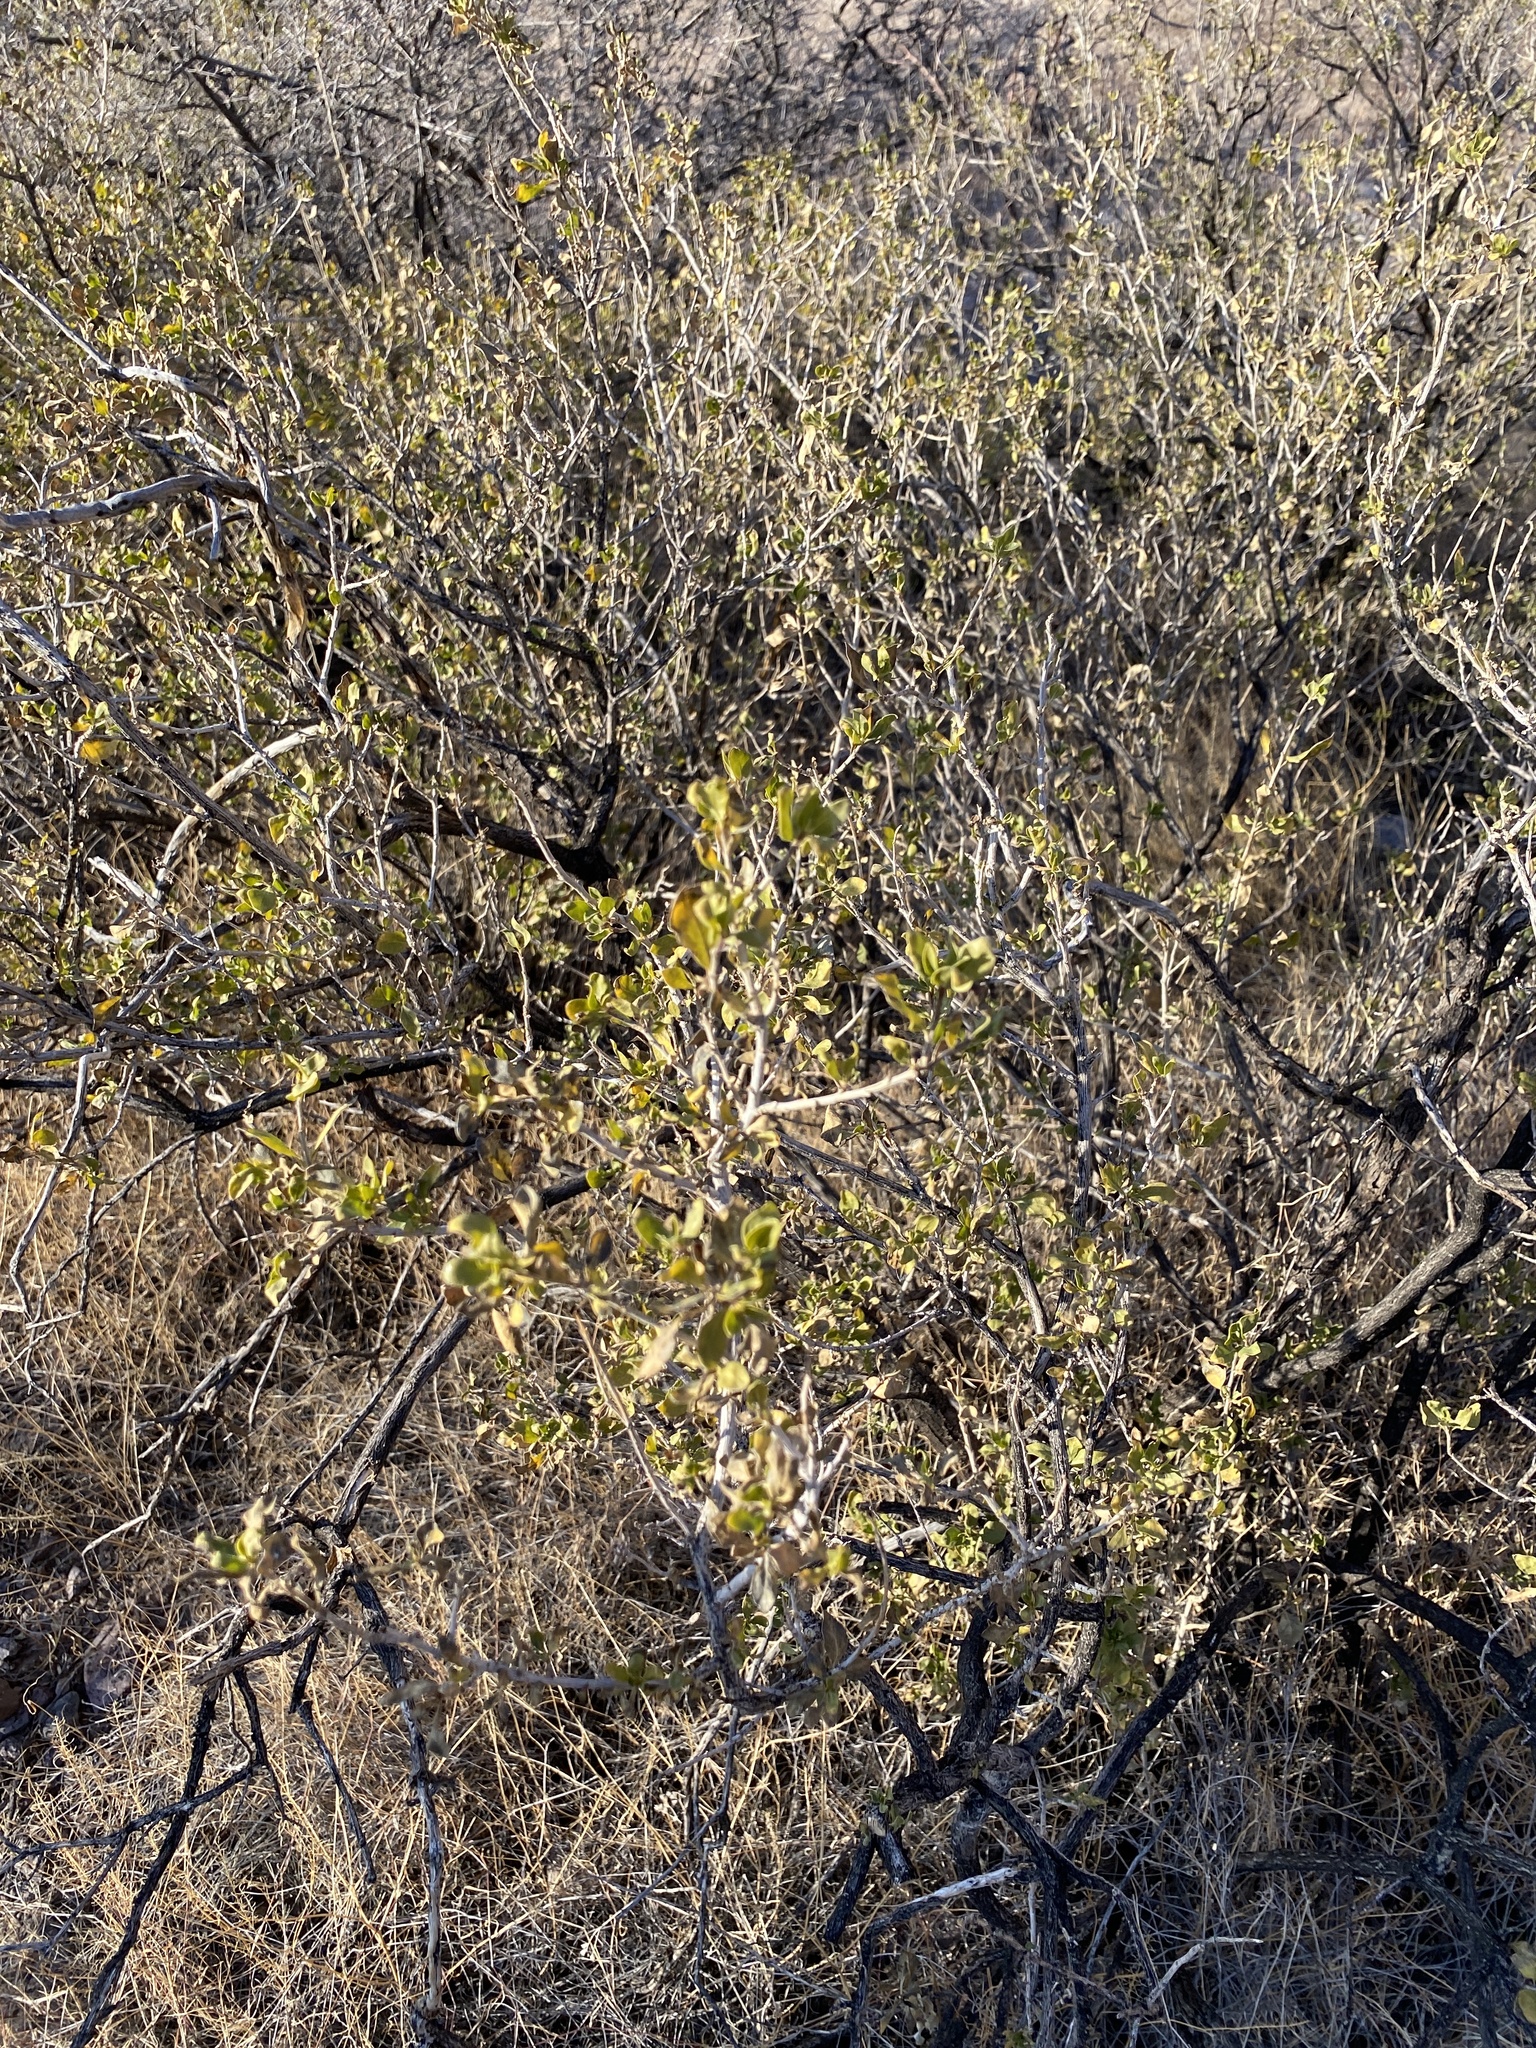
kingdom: Plantae
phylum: Tracheophyta
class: Magnoliopsida
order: Asterales
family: Asteraceae
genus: Flourensia
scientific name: Flourensia cernua
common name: Varnishbush
